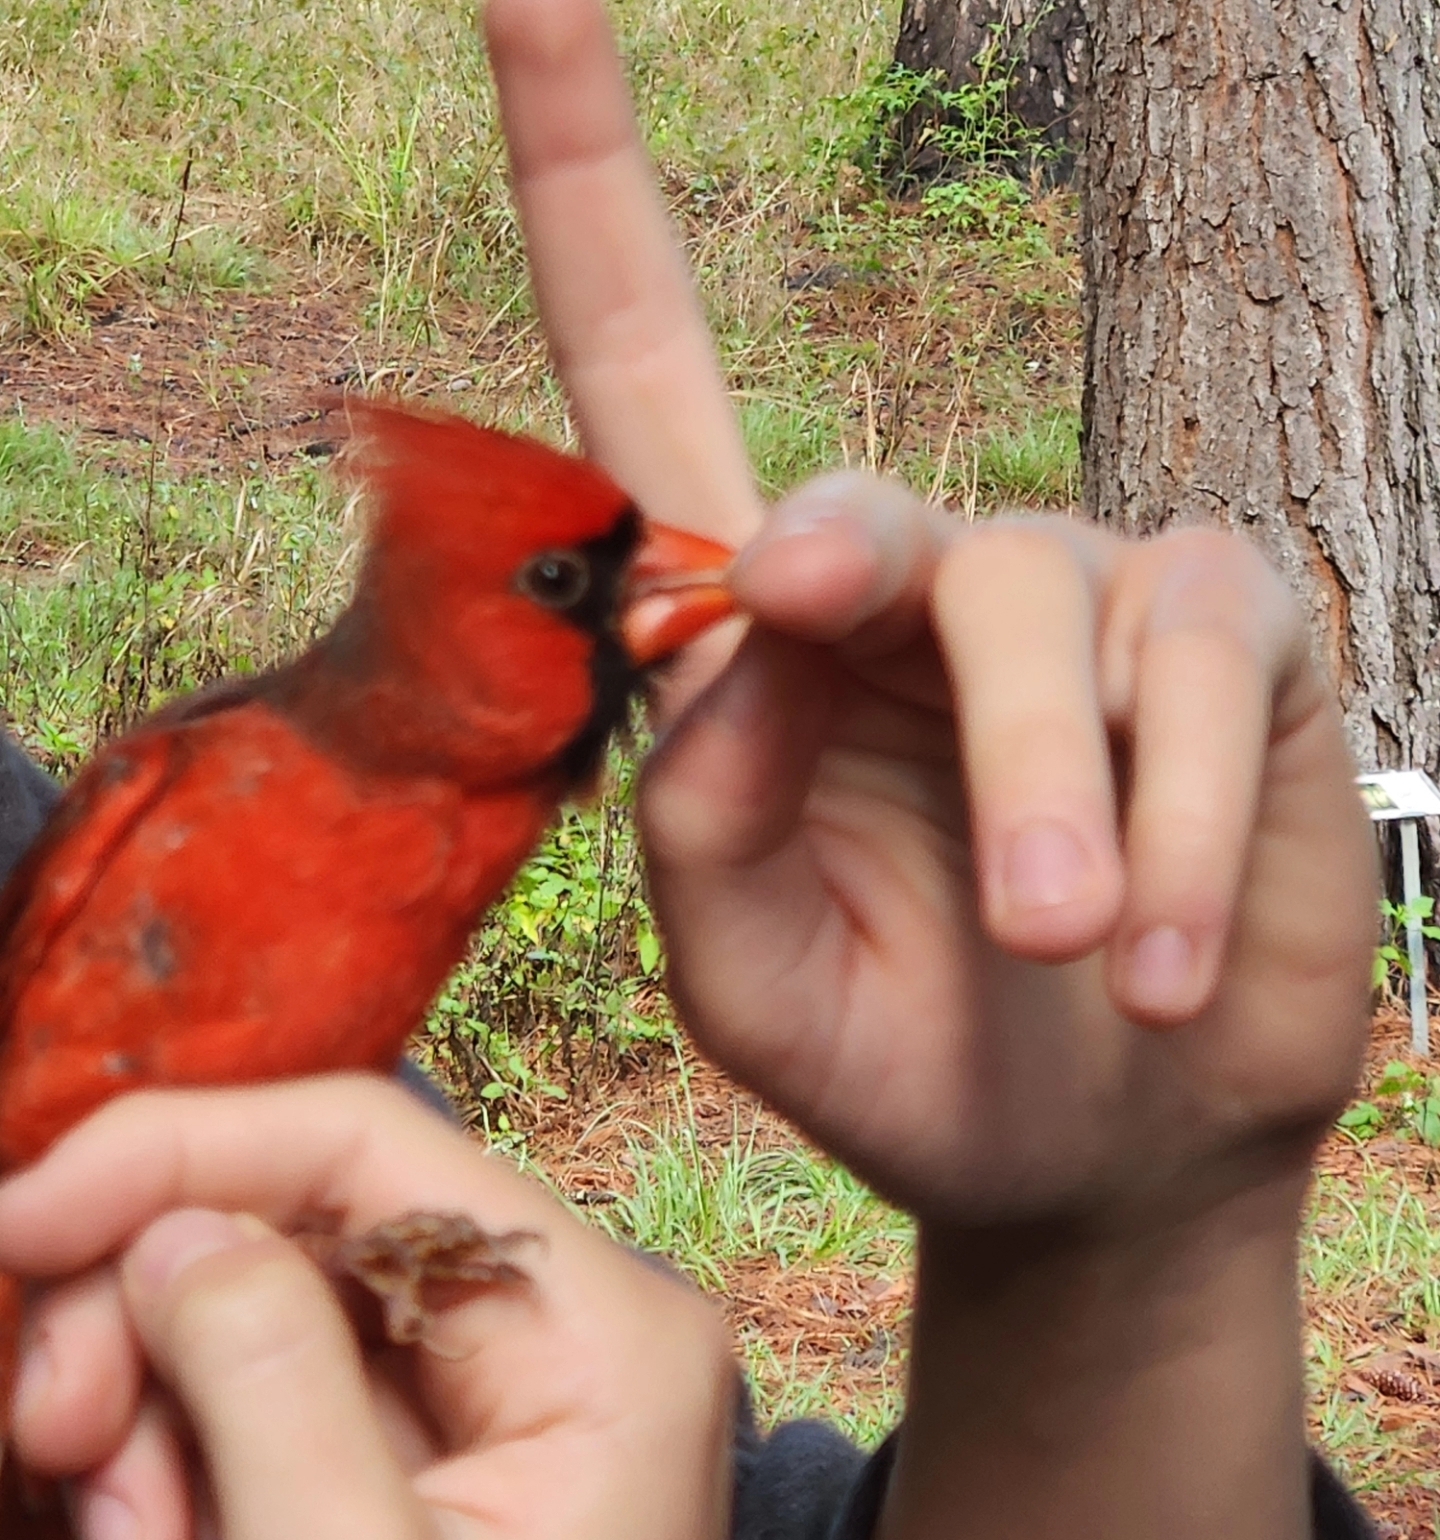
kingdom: Animalia
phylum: Chordata
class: Aves
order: Passeriformes
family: Cardinalidae
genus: Cardinalis
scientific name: Cardinalis cardinalis
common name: Northern cardinal
